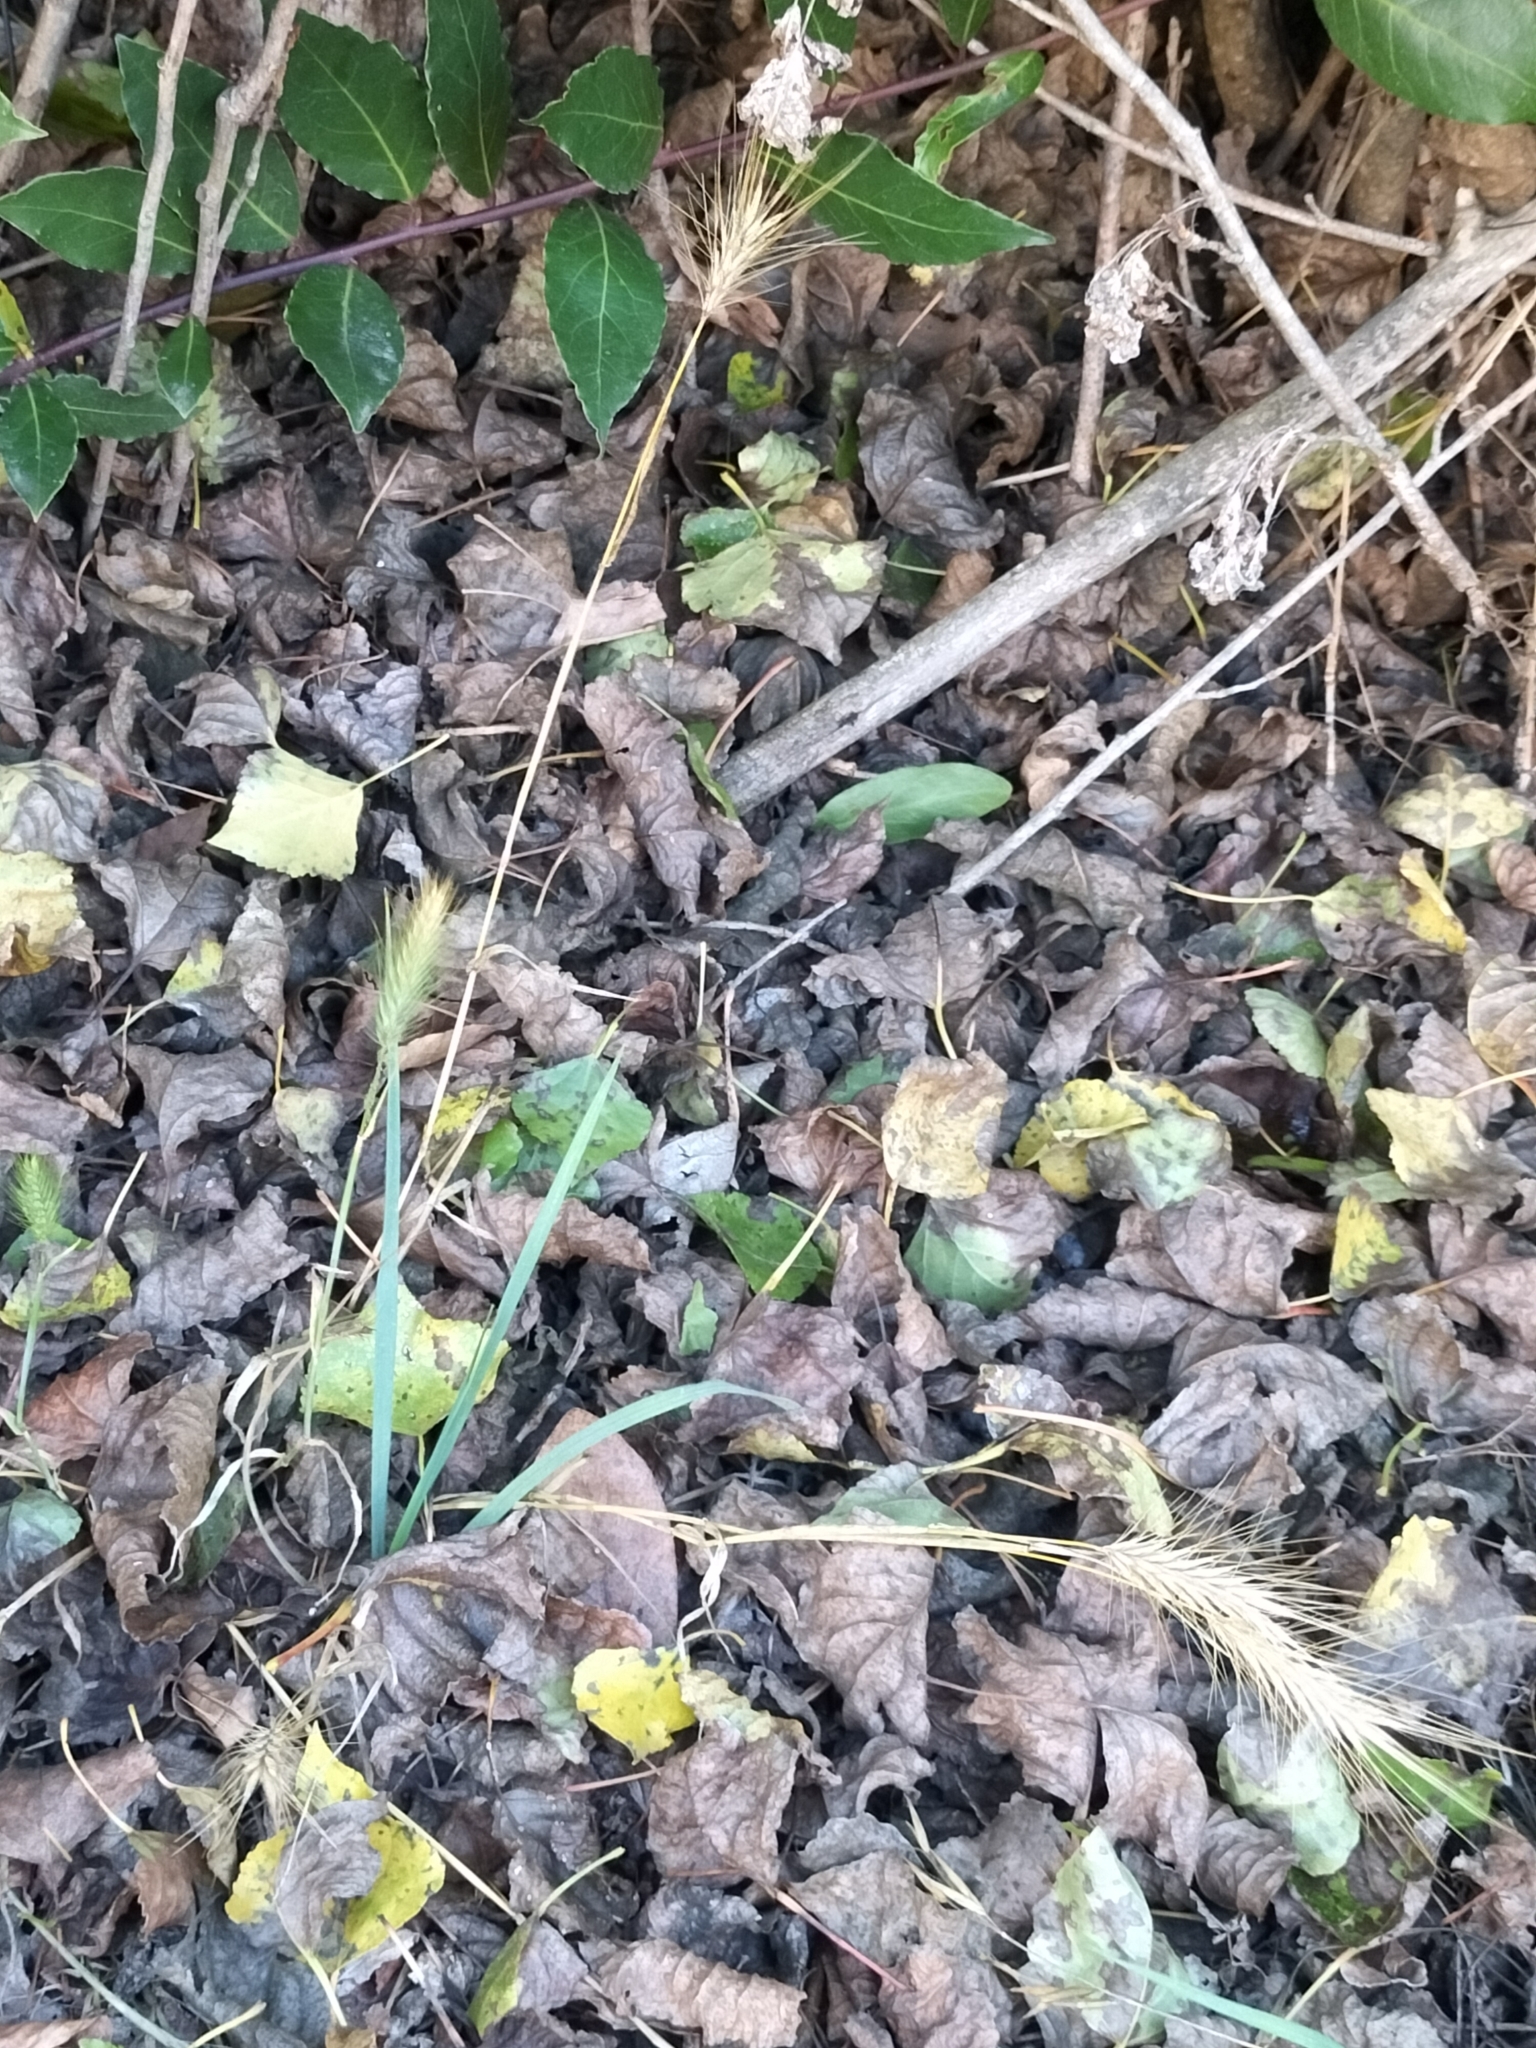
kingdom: Plantae
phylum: Tracheophyta
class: Liliopsida
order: Poales
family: Poaceae
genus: Hordeum
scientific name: Hordeum murinum
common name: Wall barley
